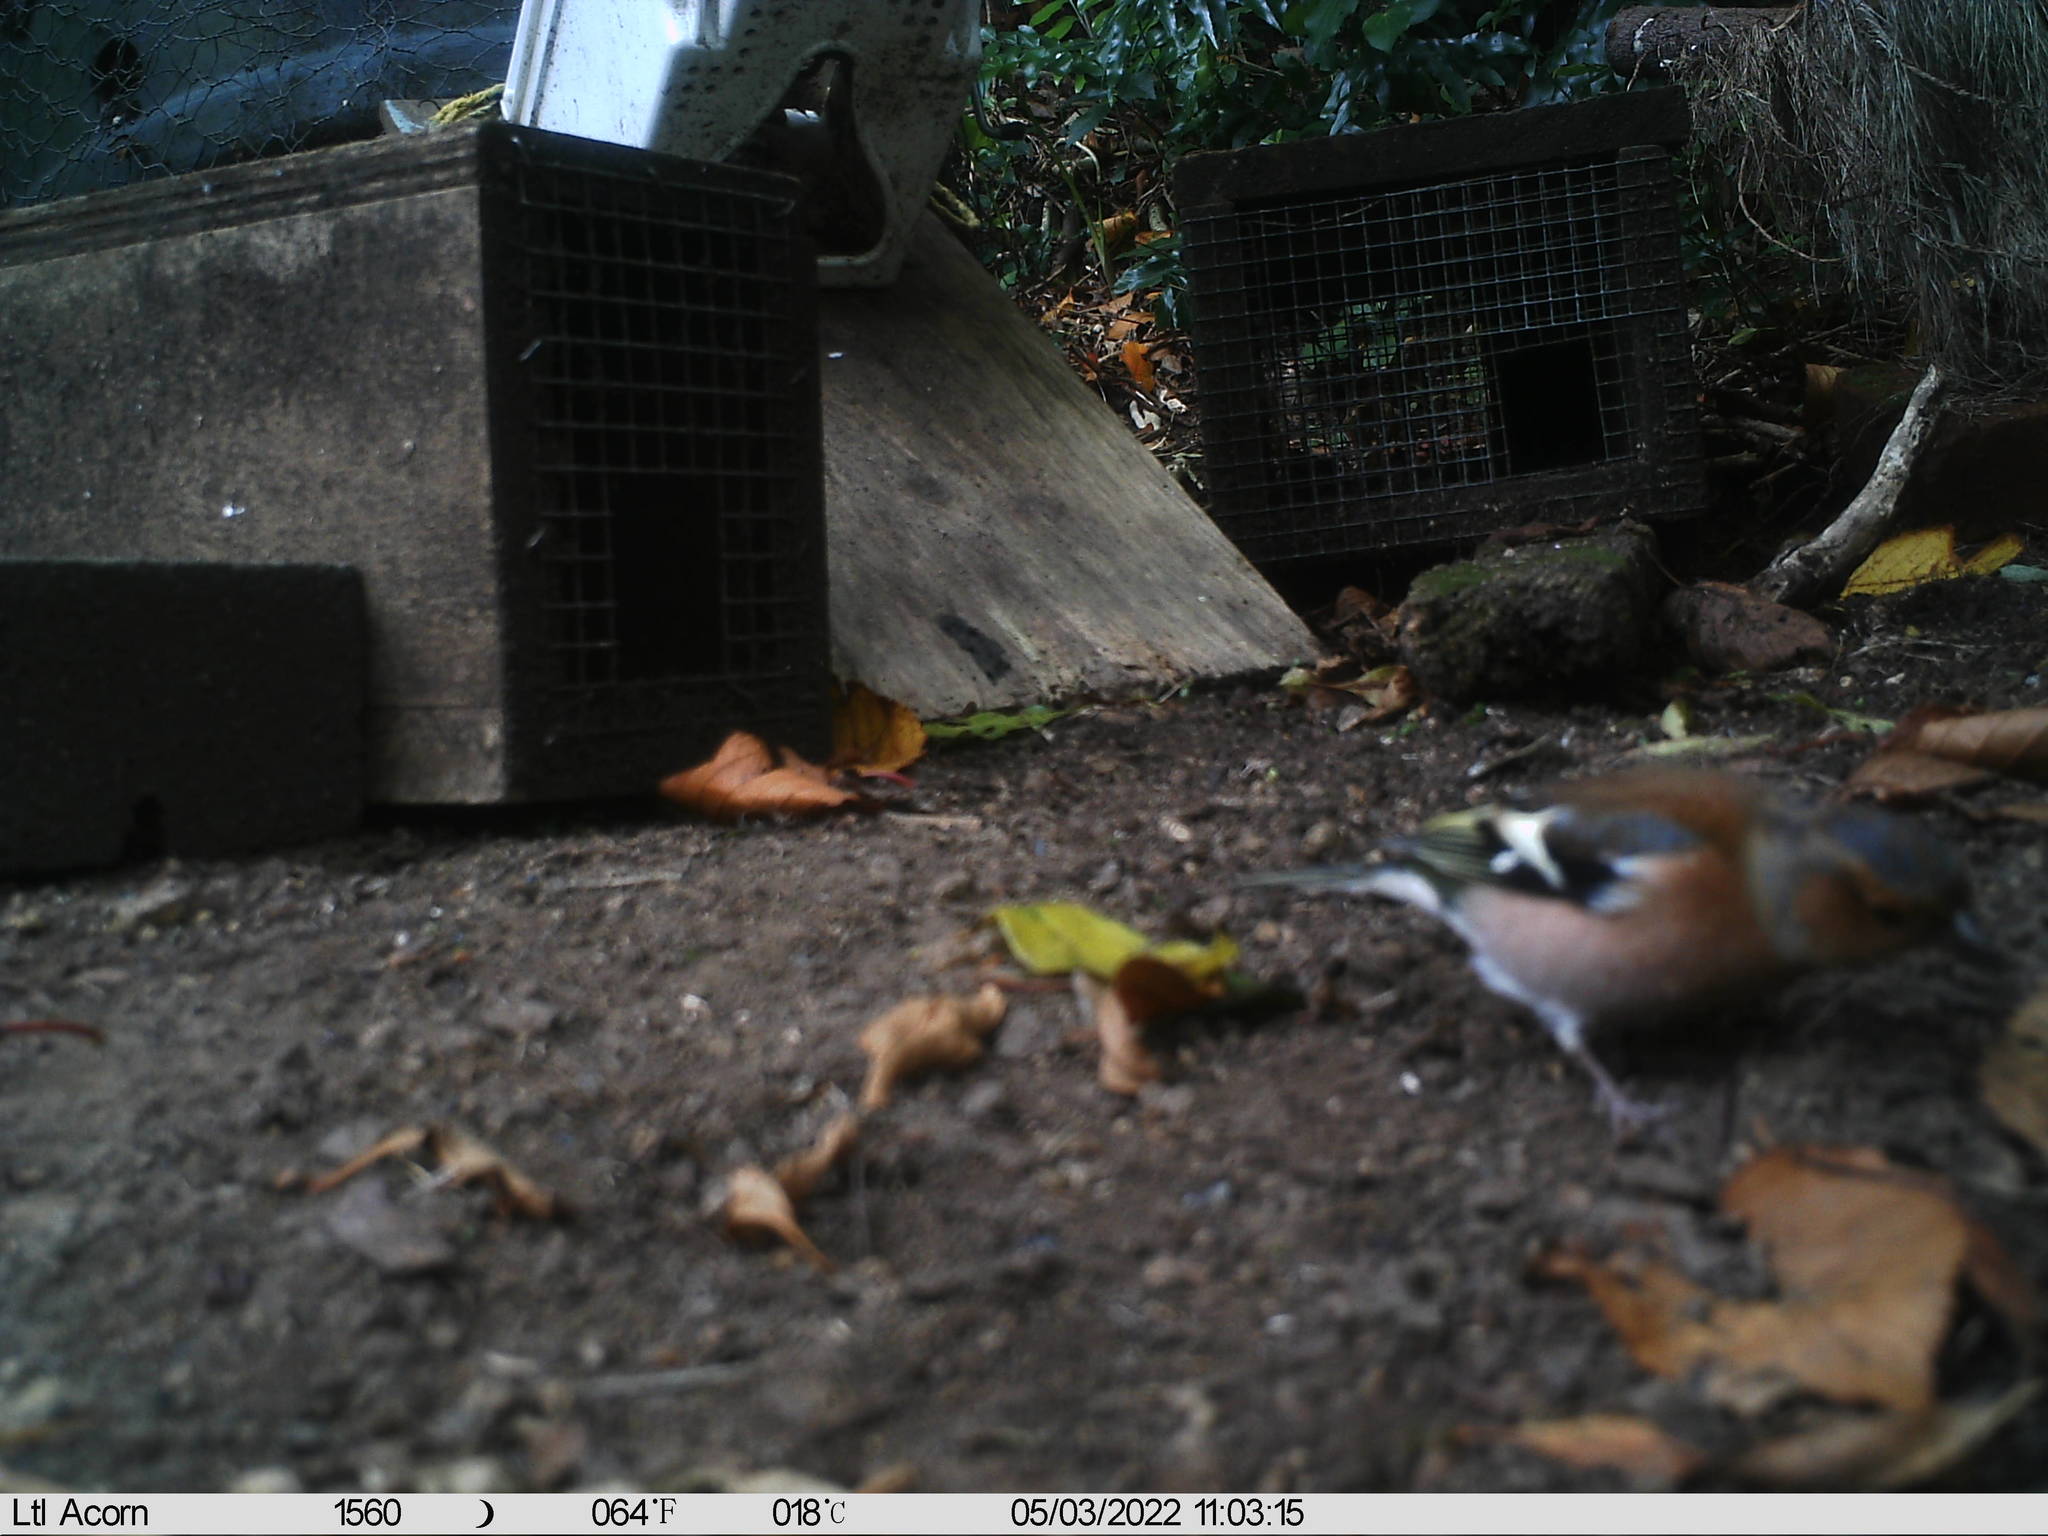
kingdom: Animalia
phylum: Chordata
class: Aves
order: Passeriformes
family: Fringillidae
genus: Fringilla
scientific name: Fringilla coelebs
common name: Common chaffinch
